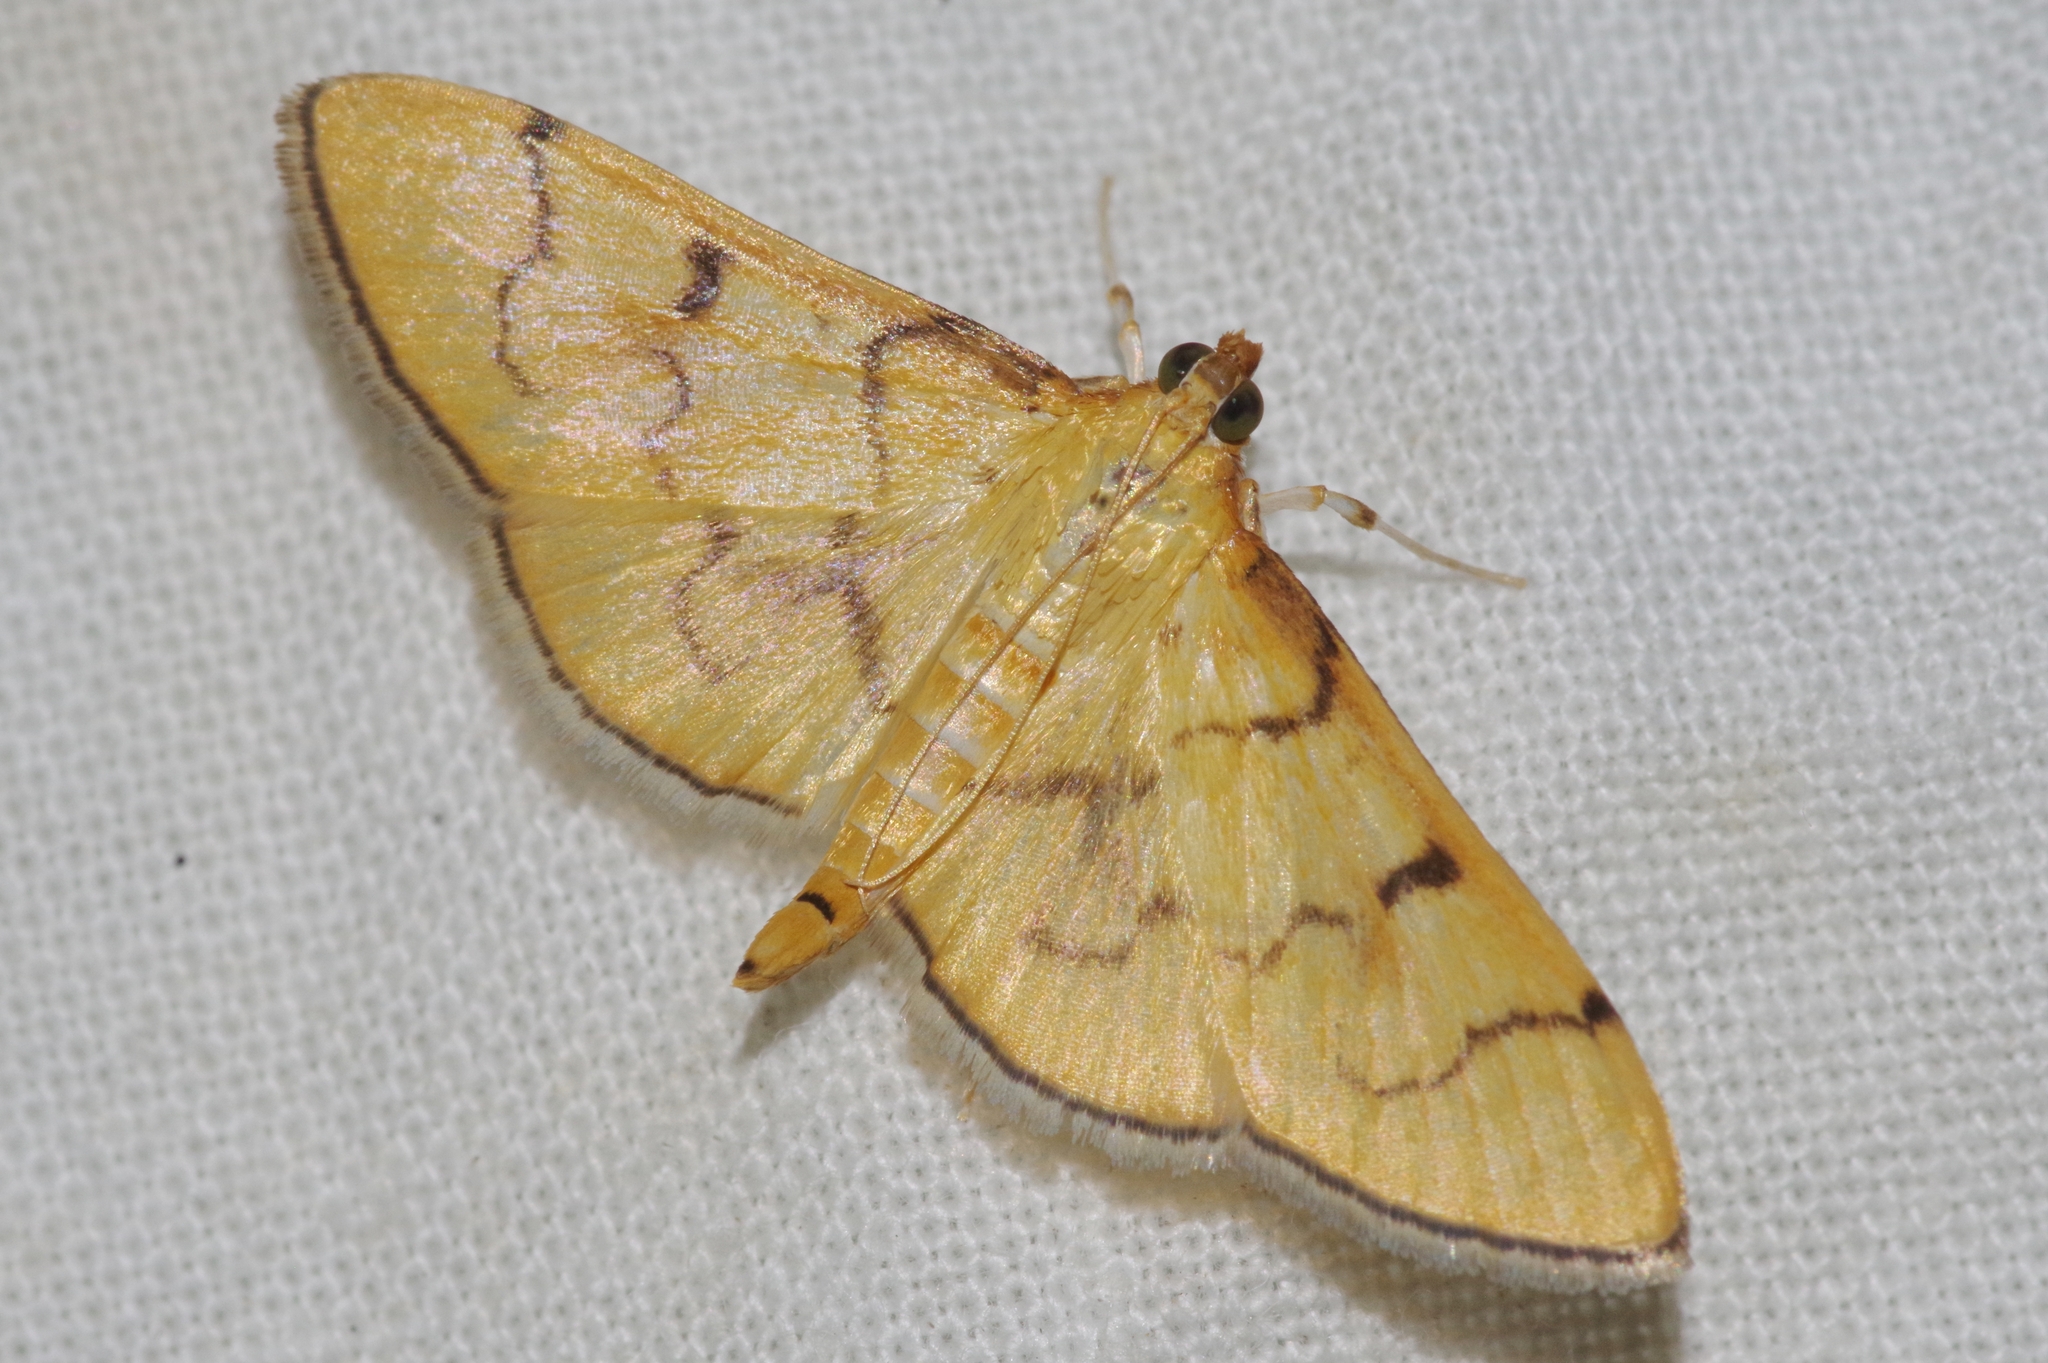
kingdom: Animalia
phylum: Arthropoda
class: Insecta
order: Lepidoptera
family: Crambidae
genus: Patania
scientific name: Patania chlorophanta
